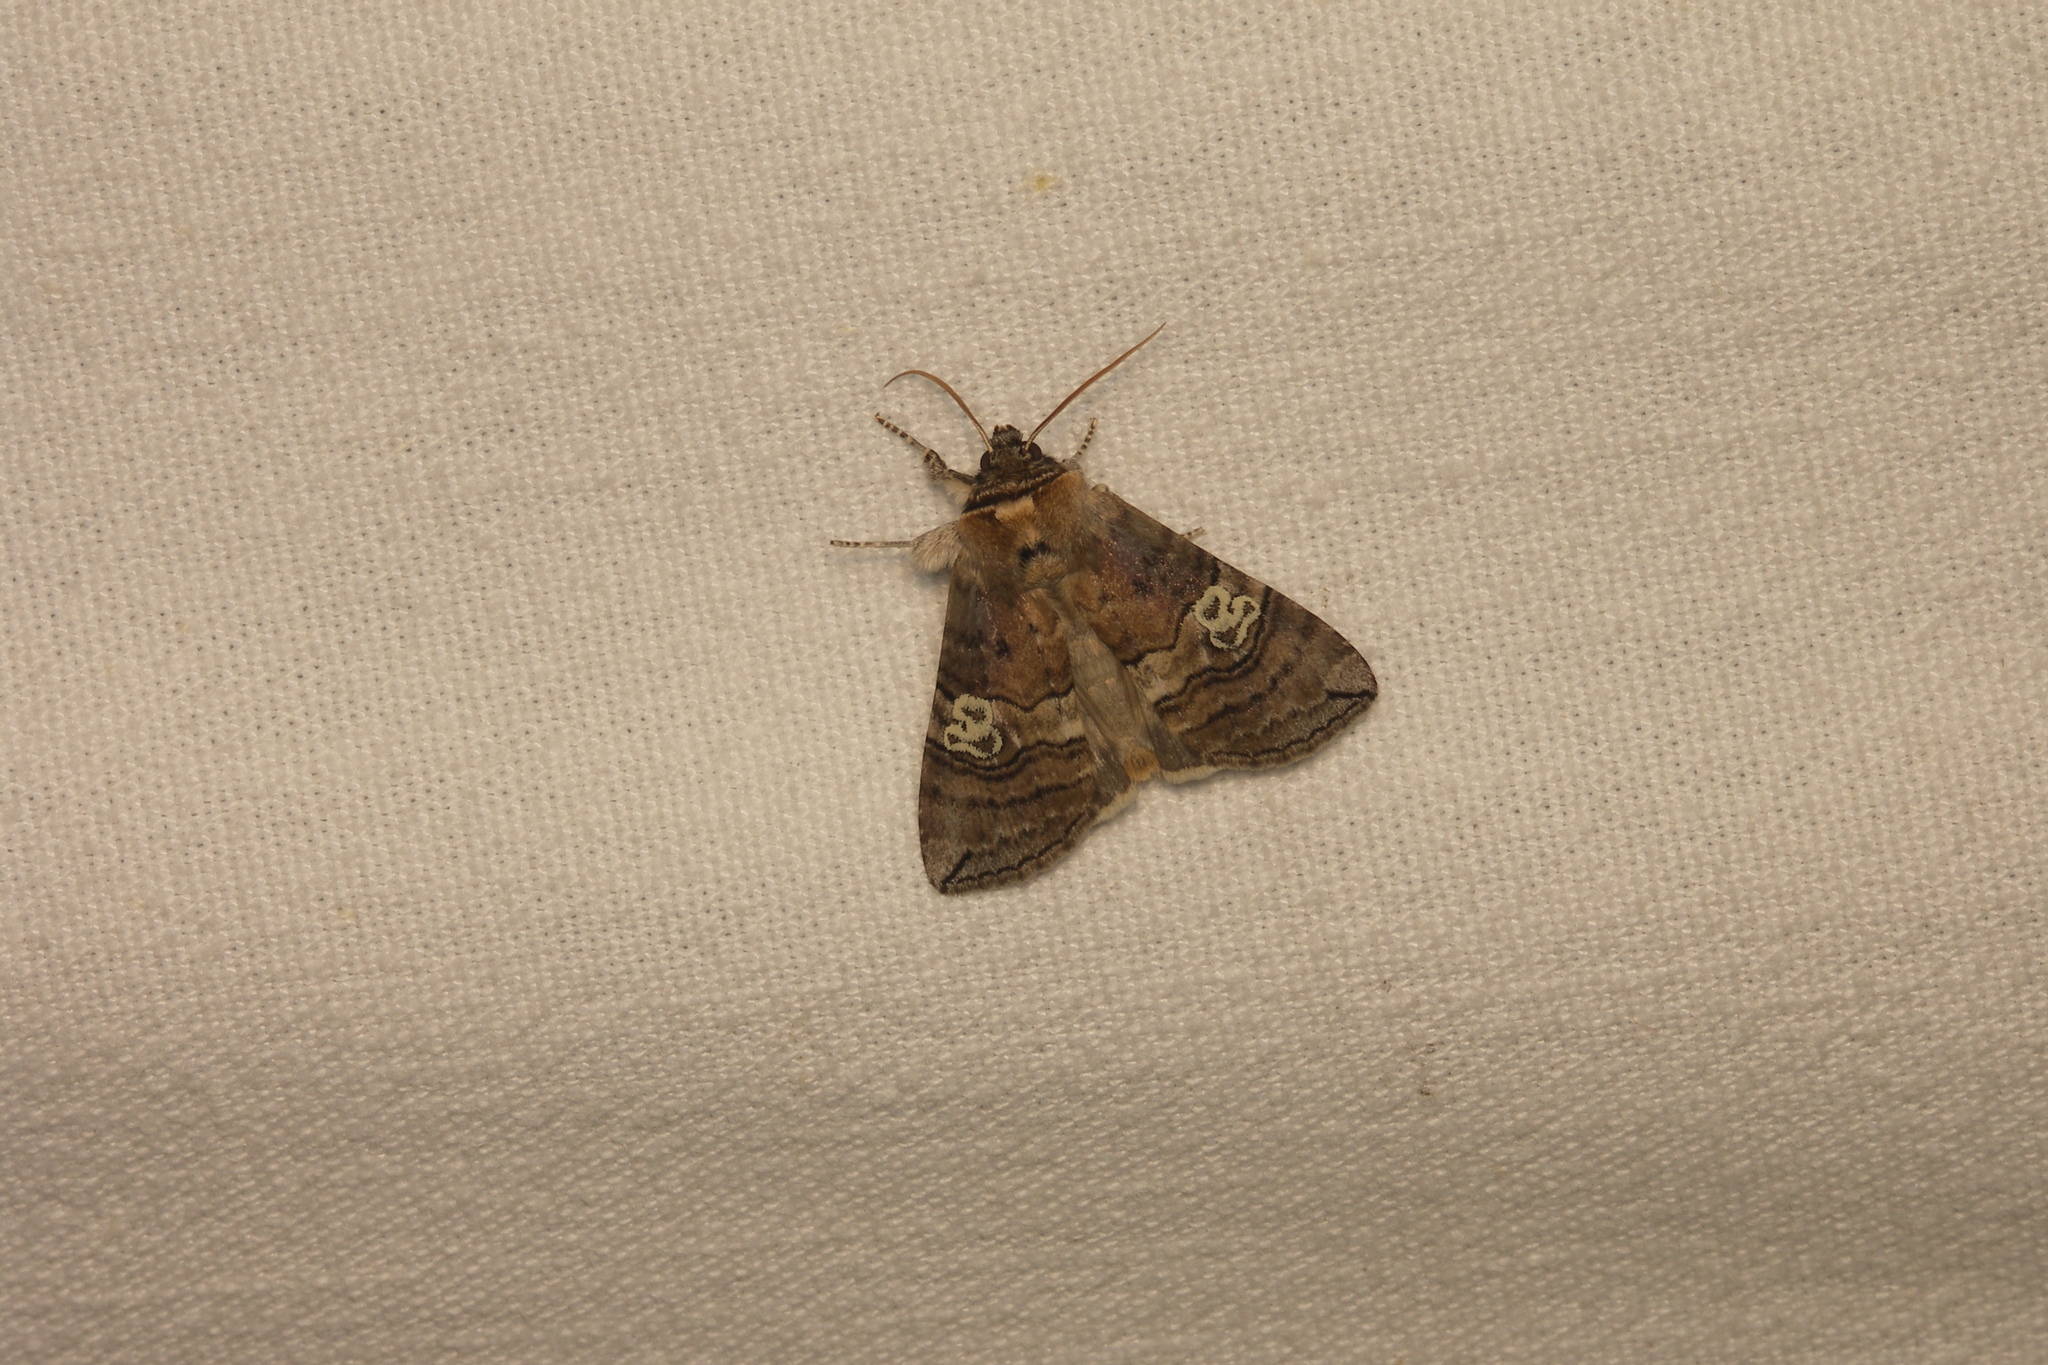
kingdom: Animalia
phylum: Arthropoda
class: Insecta
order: Lepidoptera
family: Drepanidae
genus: Tethea
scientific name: Tethea ocularis
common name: Figure of eighty
